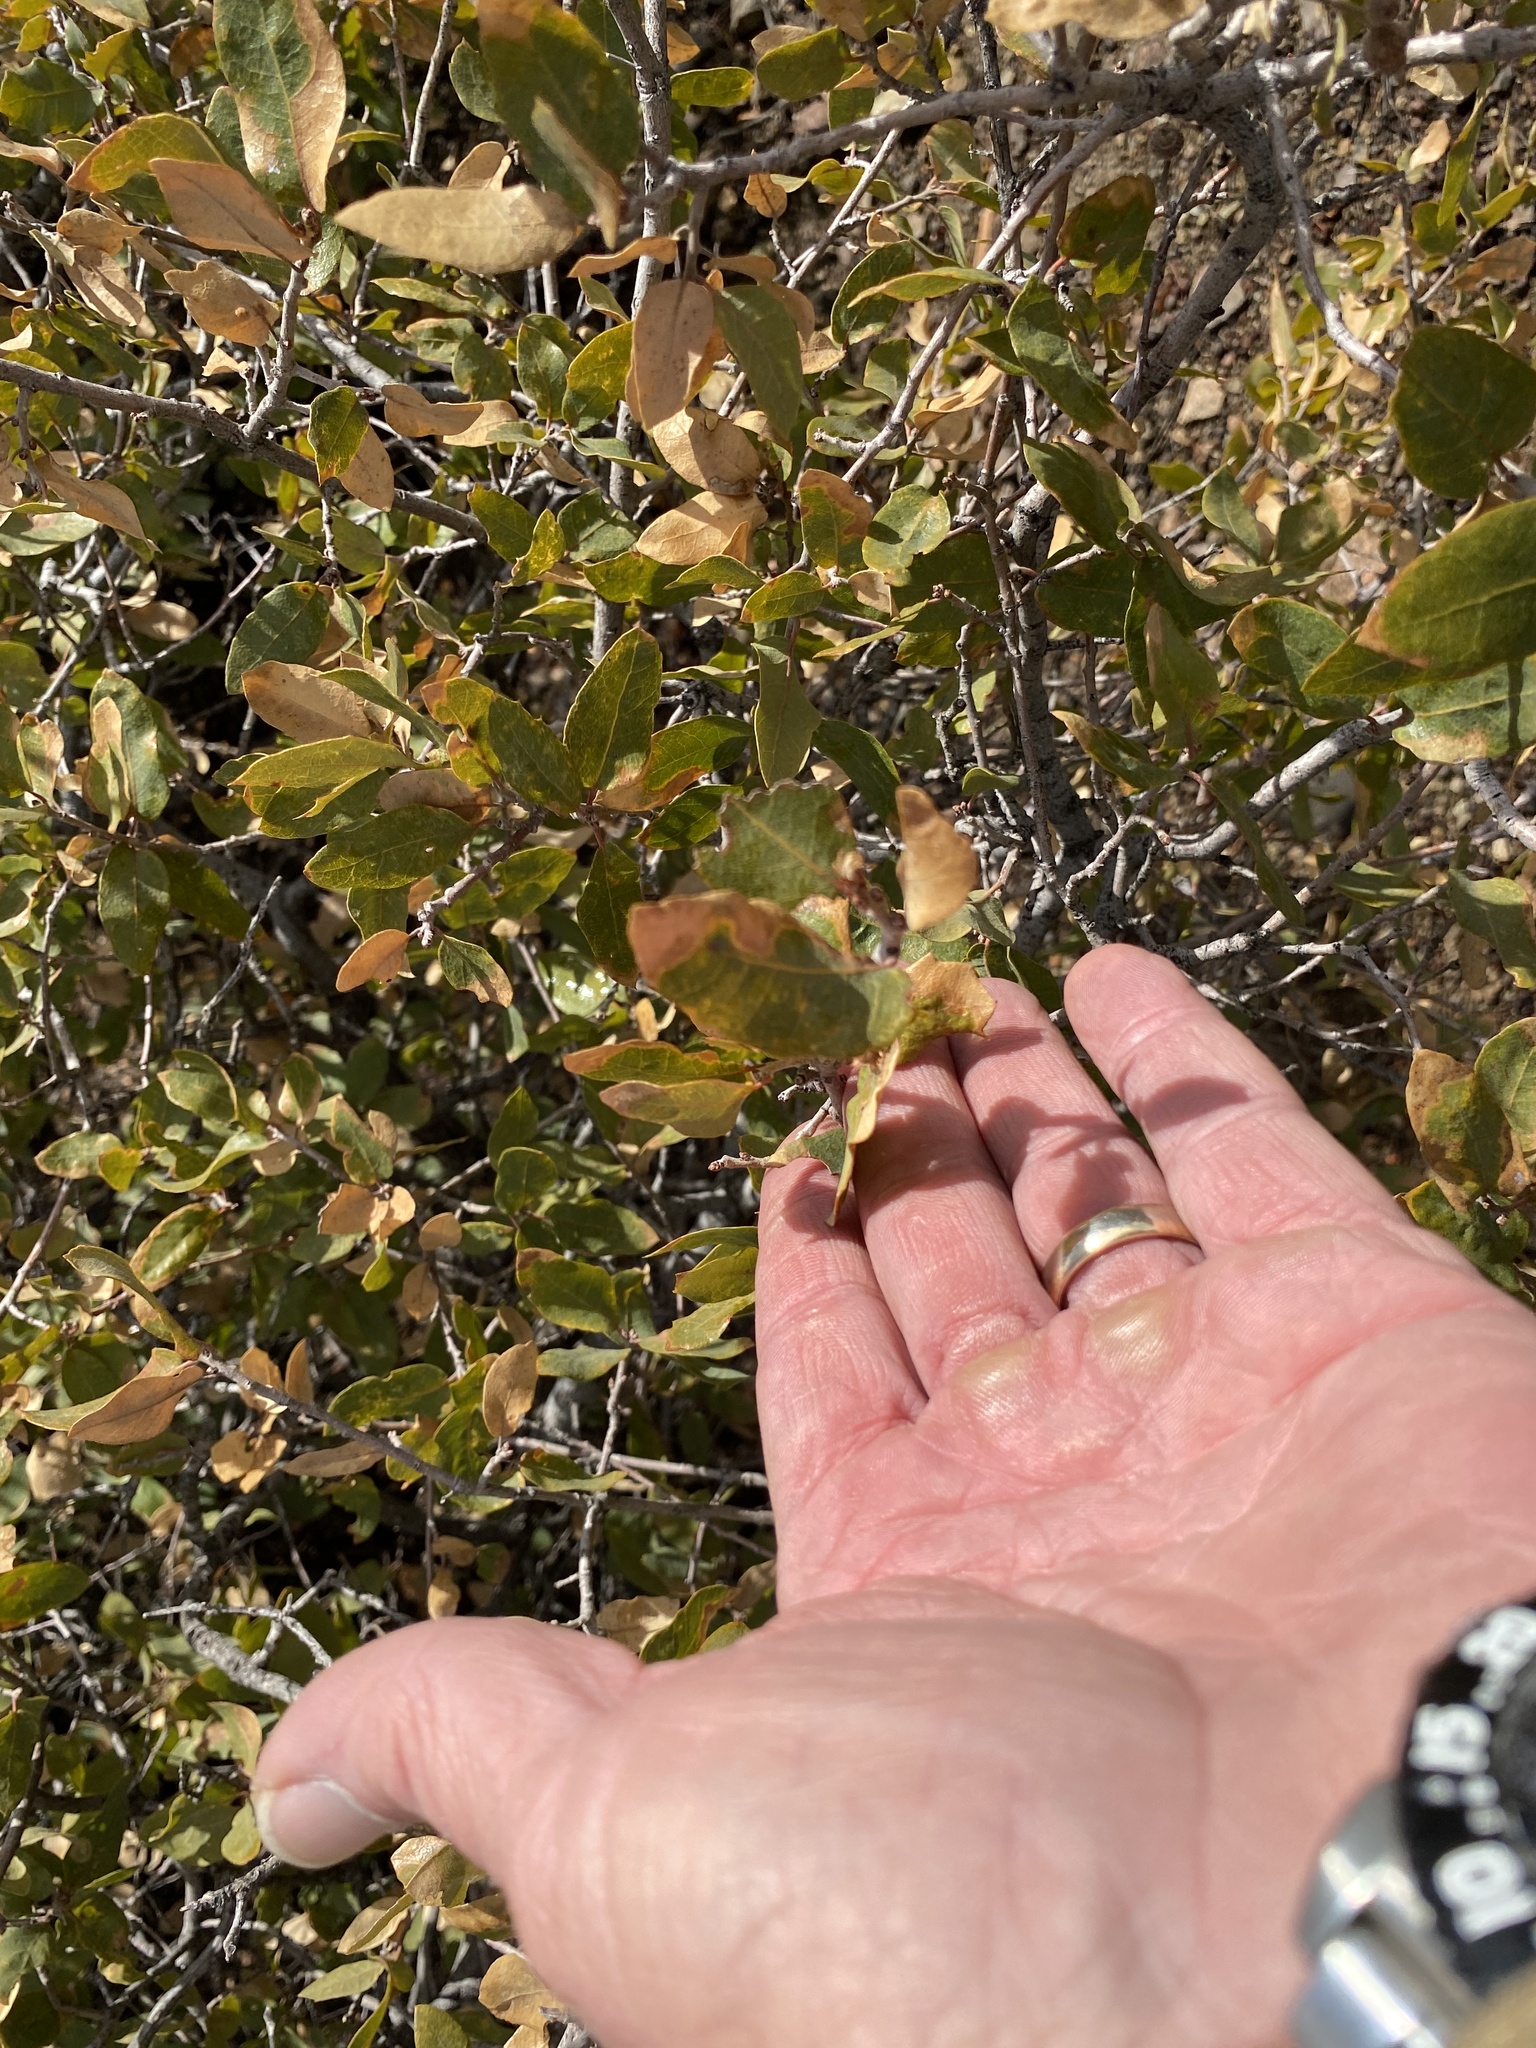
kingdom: Plantae
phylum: Tracheophyta
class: Magnoliopsida
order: Fagales
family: Fagaceae
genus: Quercus
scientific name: Quercus emoryi
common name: Emory oak
